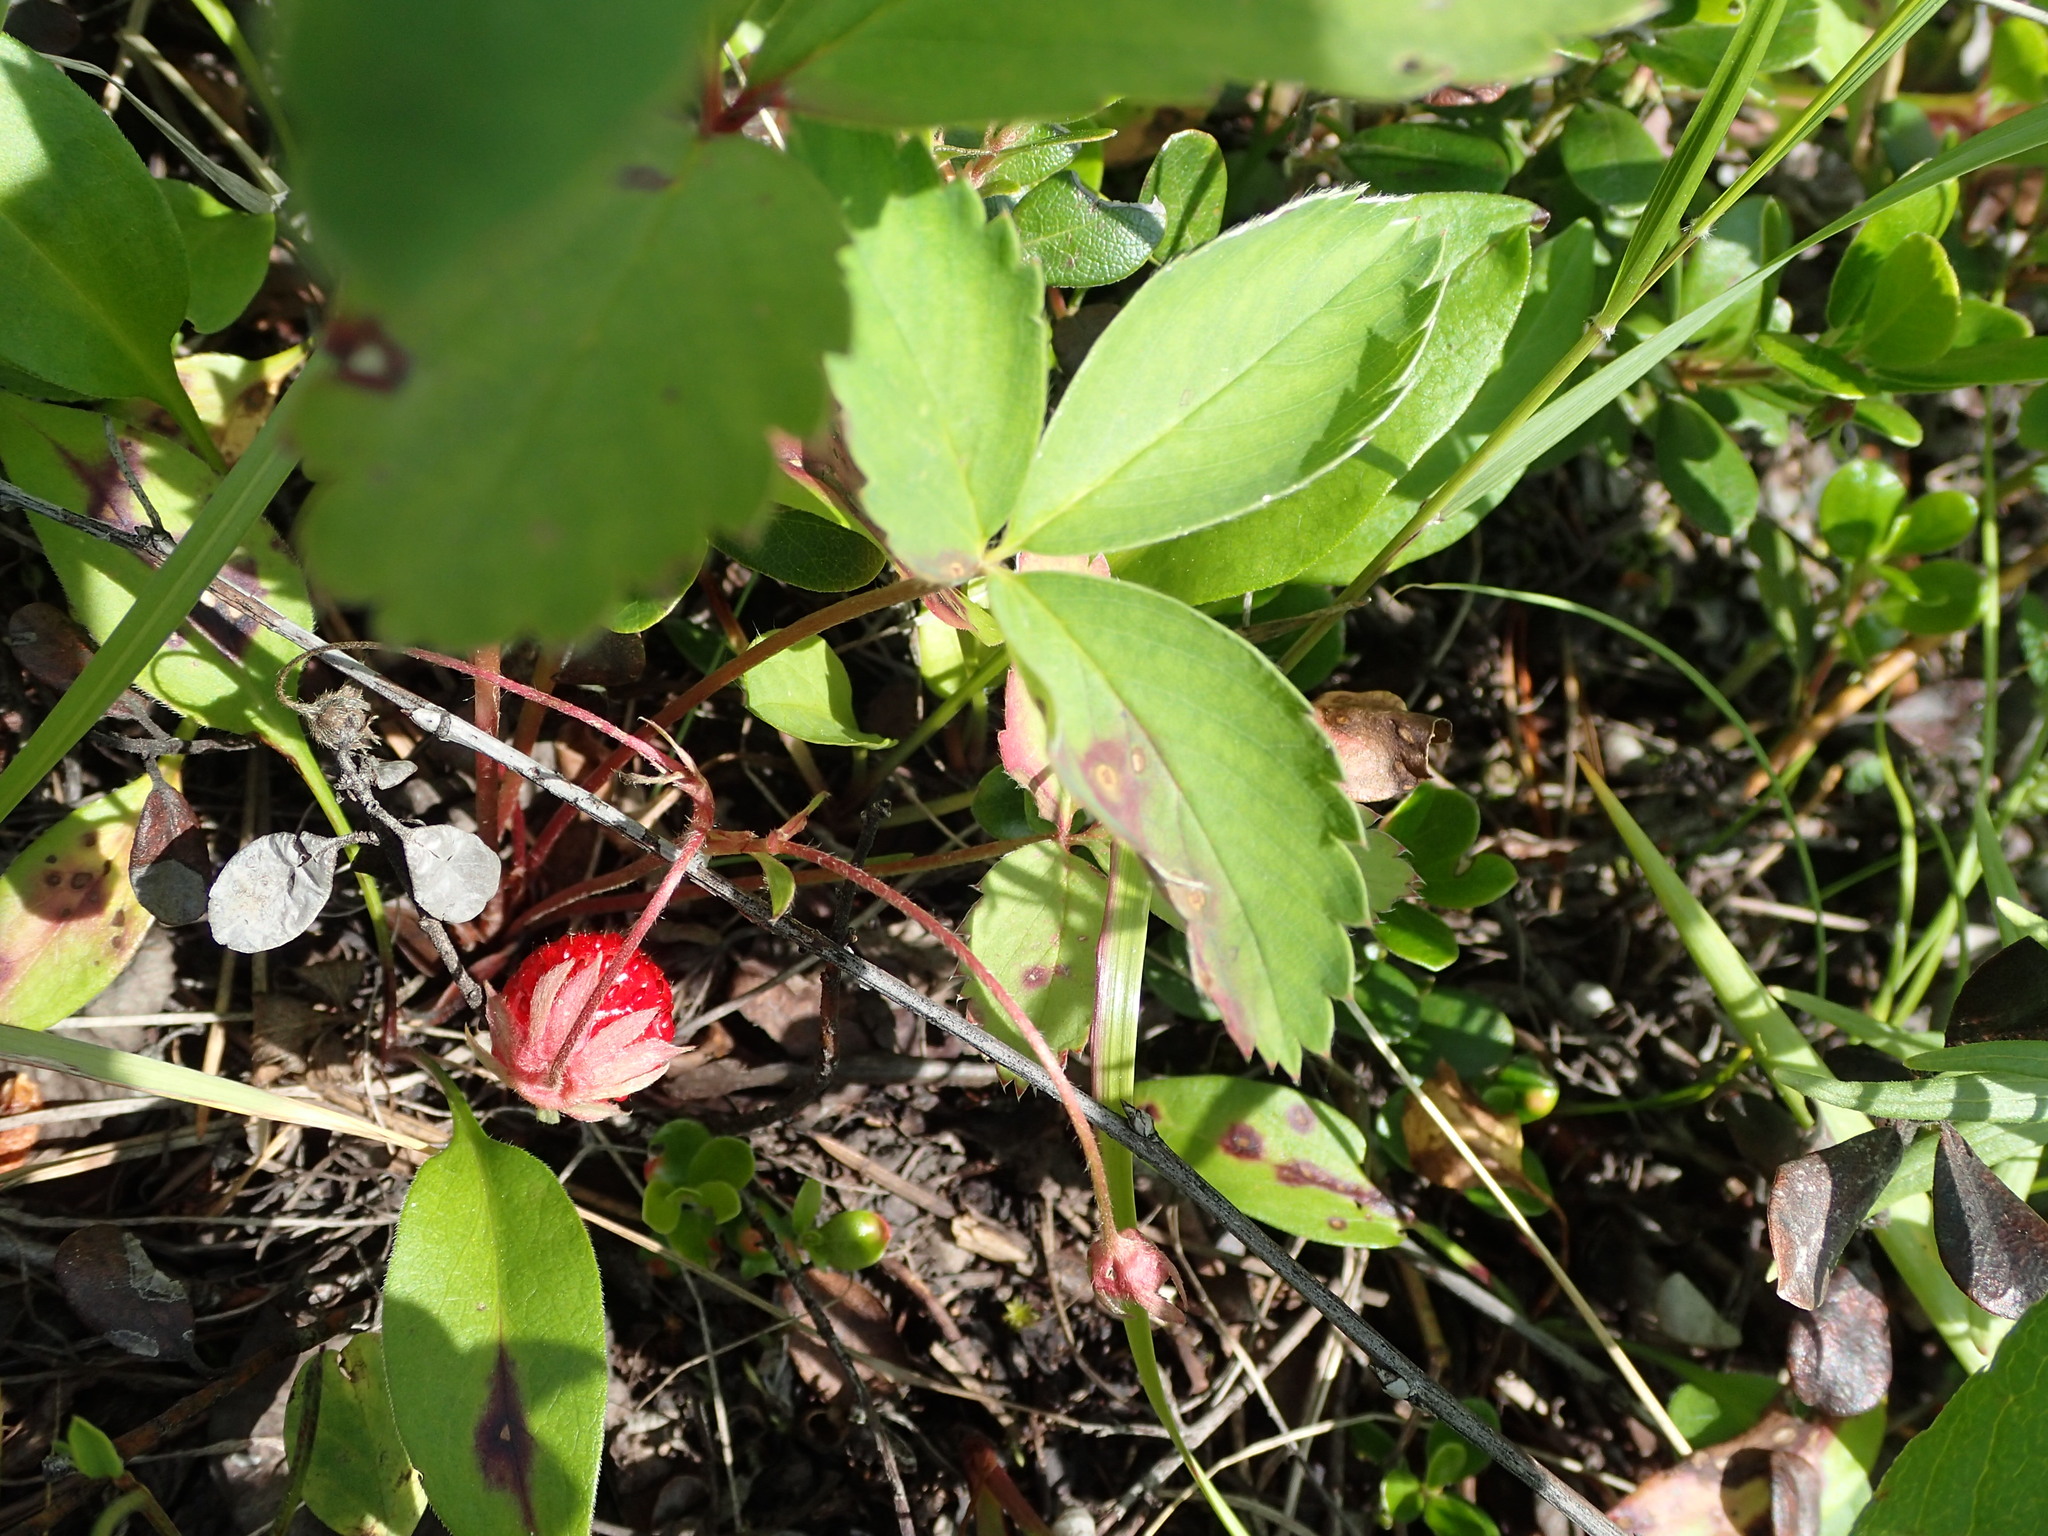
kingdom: Plantae
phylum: Tracheophyta
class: Magnoliopsida
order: Rosales
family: Rosaceae
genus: Fragaria
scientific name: Fragaria virginiana
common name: Thickleaved wild strawberry
